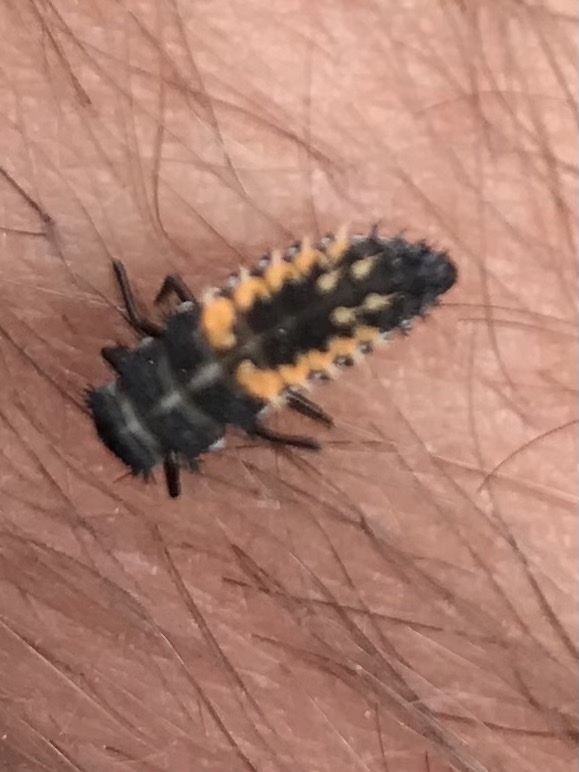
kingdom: Animalia
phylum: Arthropoda
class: Insecta
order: Coleoptera
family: Coccinellidae
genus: Harmonia
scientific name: Harmonia axyridis
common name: Harlequin ladybird
